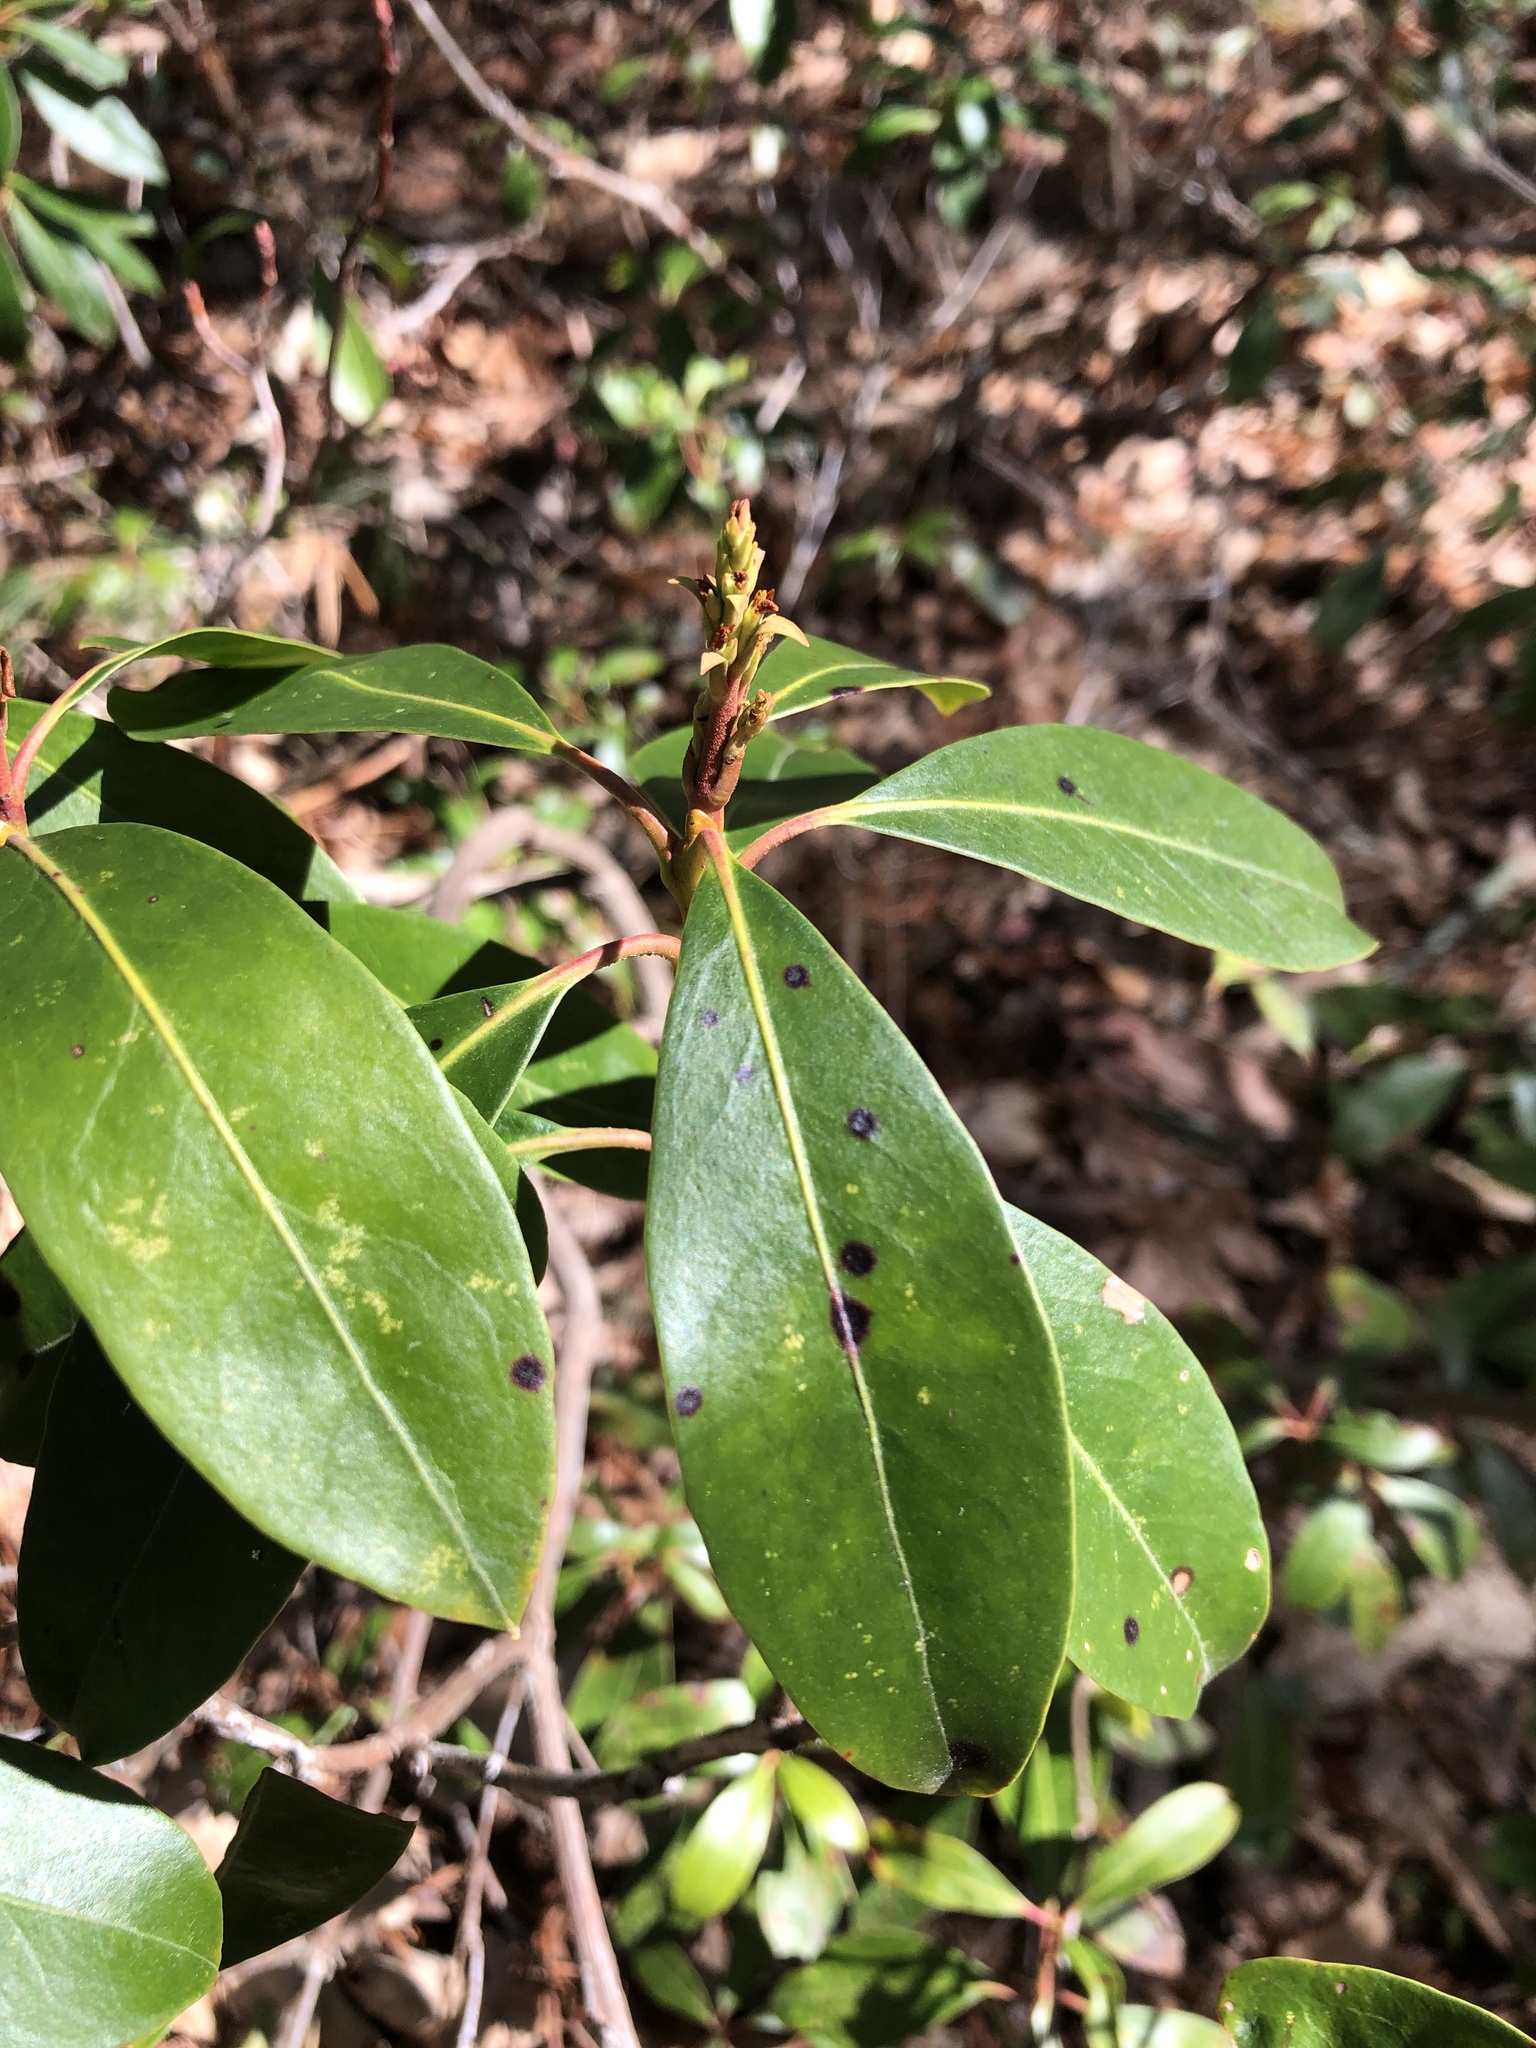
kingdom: Plantae
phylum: Tracheophyta
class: Magnoliopsida
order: Ericales
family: Ericaceae
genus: Kalmia
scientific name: Kalmia latifolia
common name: Mountain-laurel
